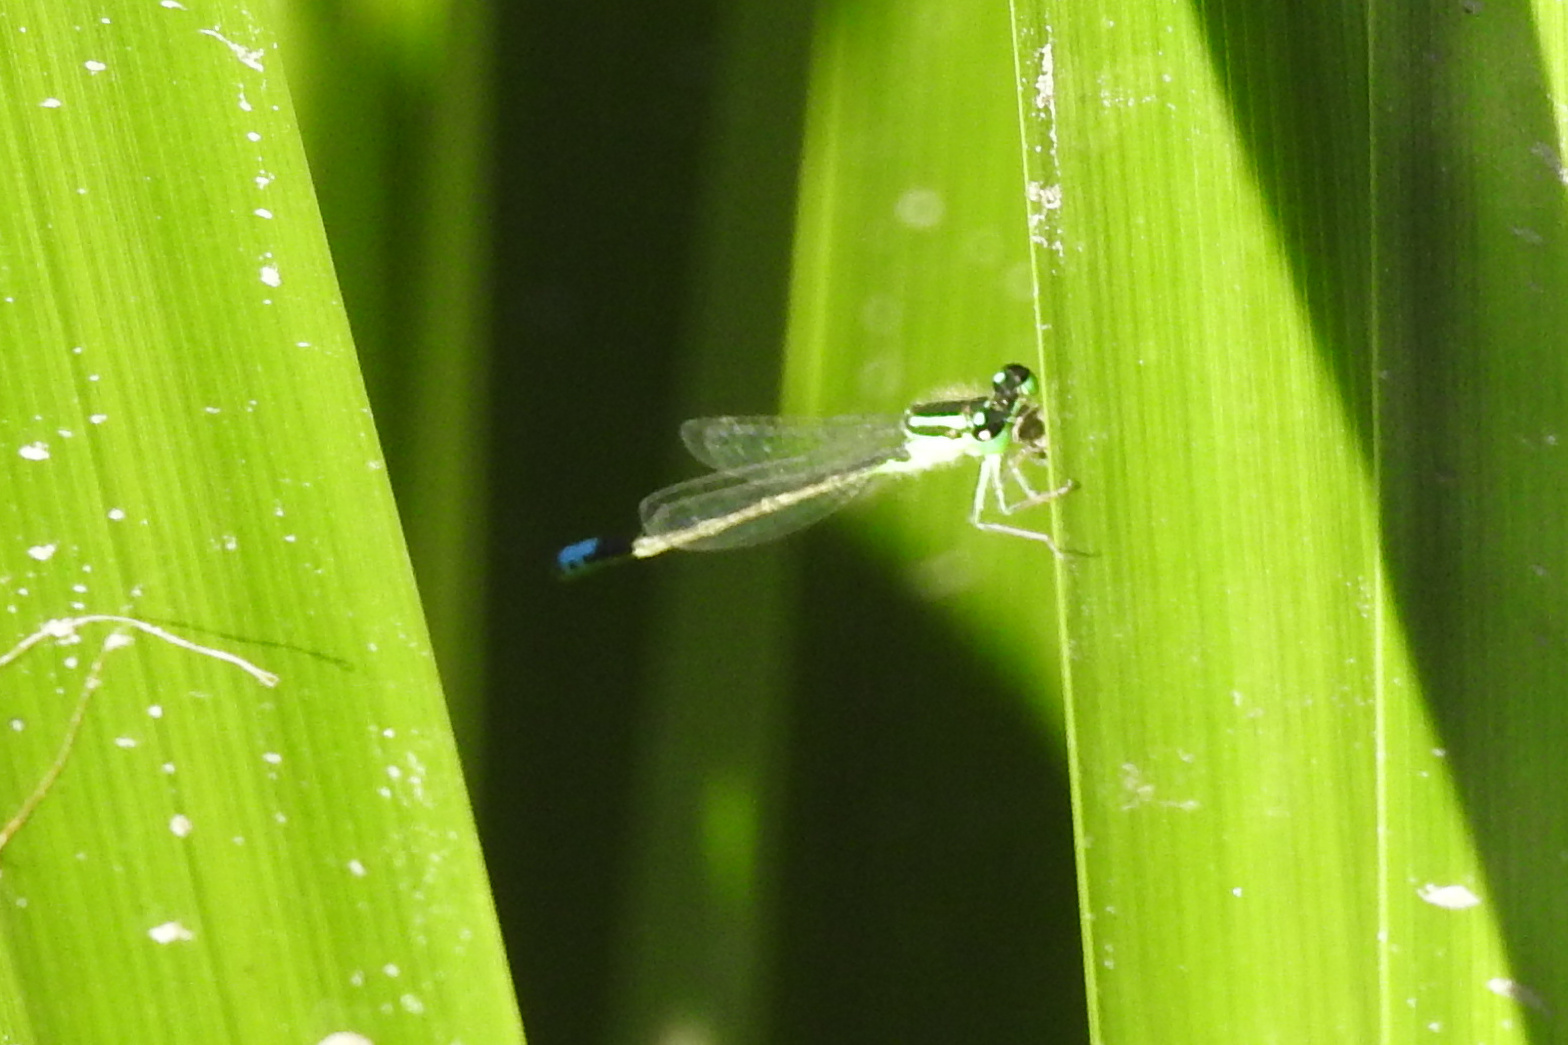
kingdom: Animalia
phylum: Arthropoda
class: Insecta
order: Odonata
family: Coenagrionidae
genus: Ischnura
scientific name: Ischnura verticalis
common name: Eastern forktail
